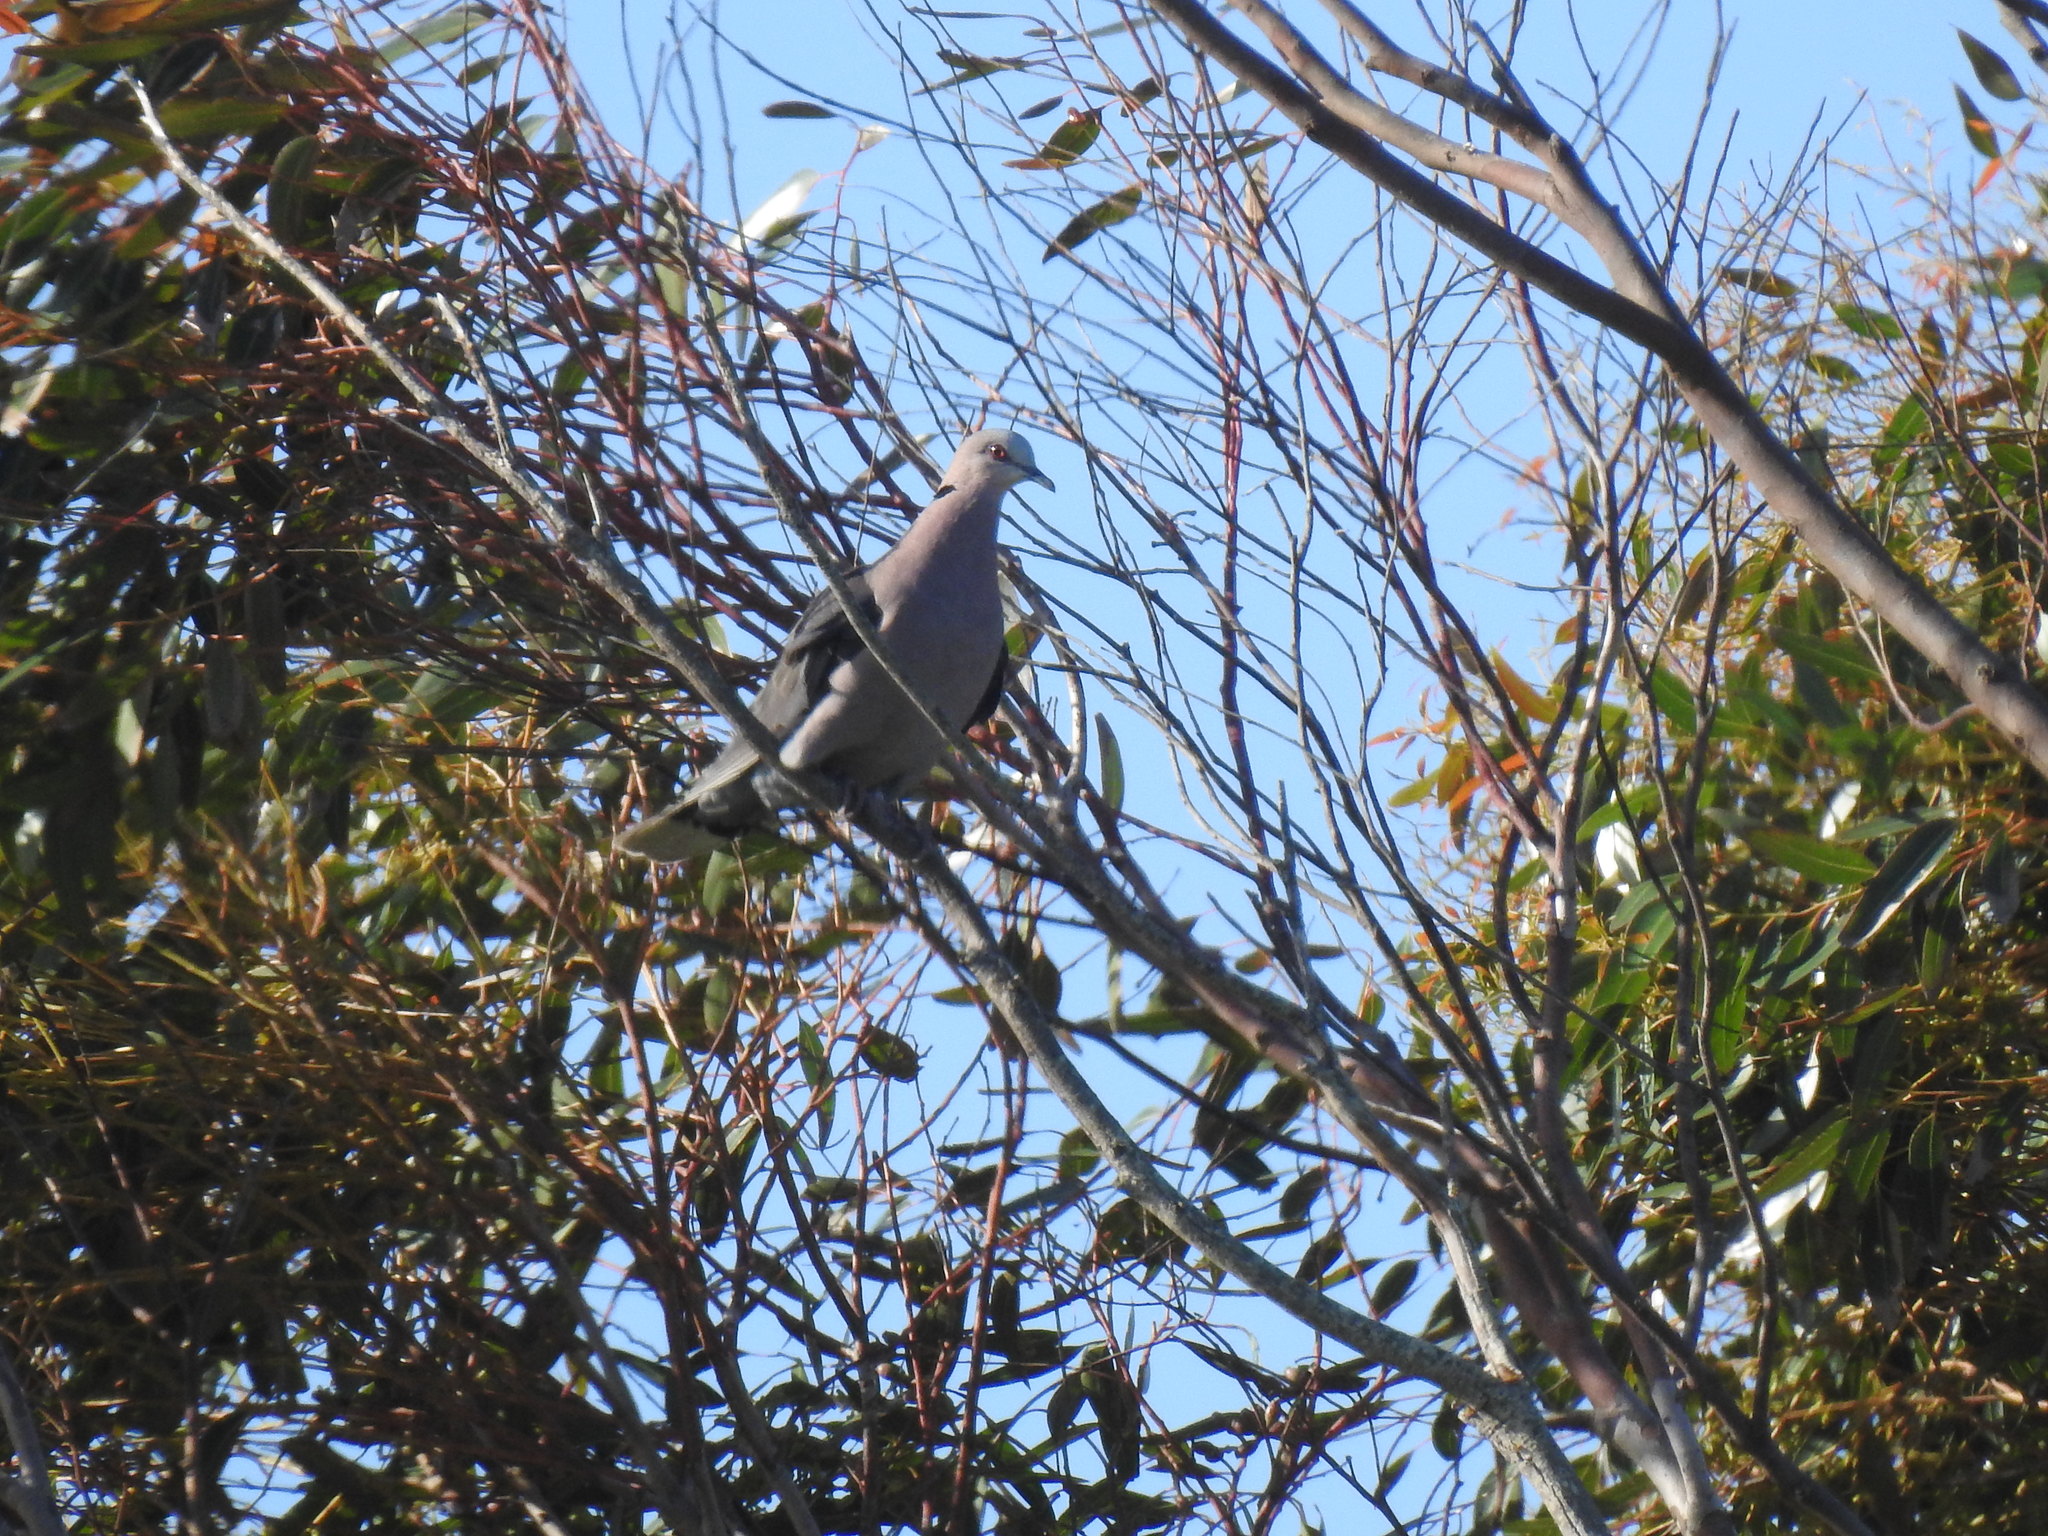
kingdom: Animalia
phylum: Chordata
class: Aves
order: Columbiformes
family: Columbidae
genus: Streptopelia
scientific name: Streptopelia semitorquata
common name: Red-eyed dove
